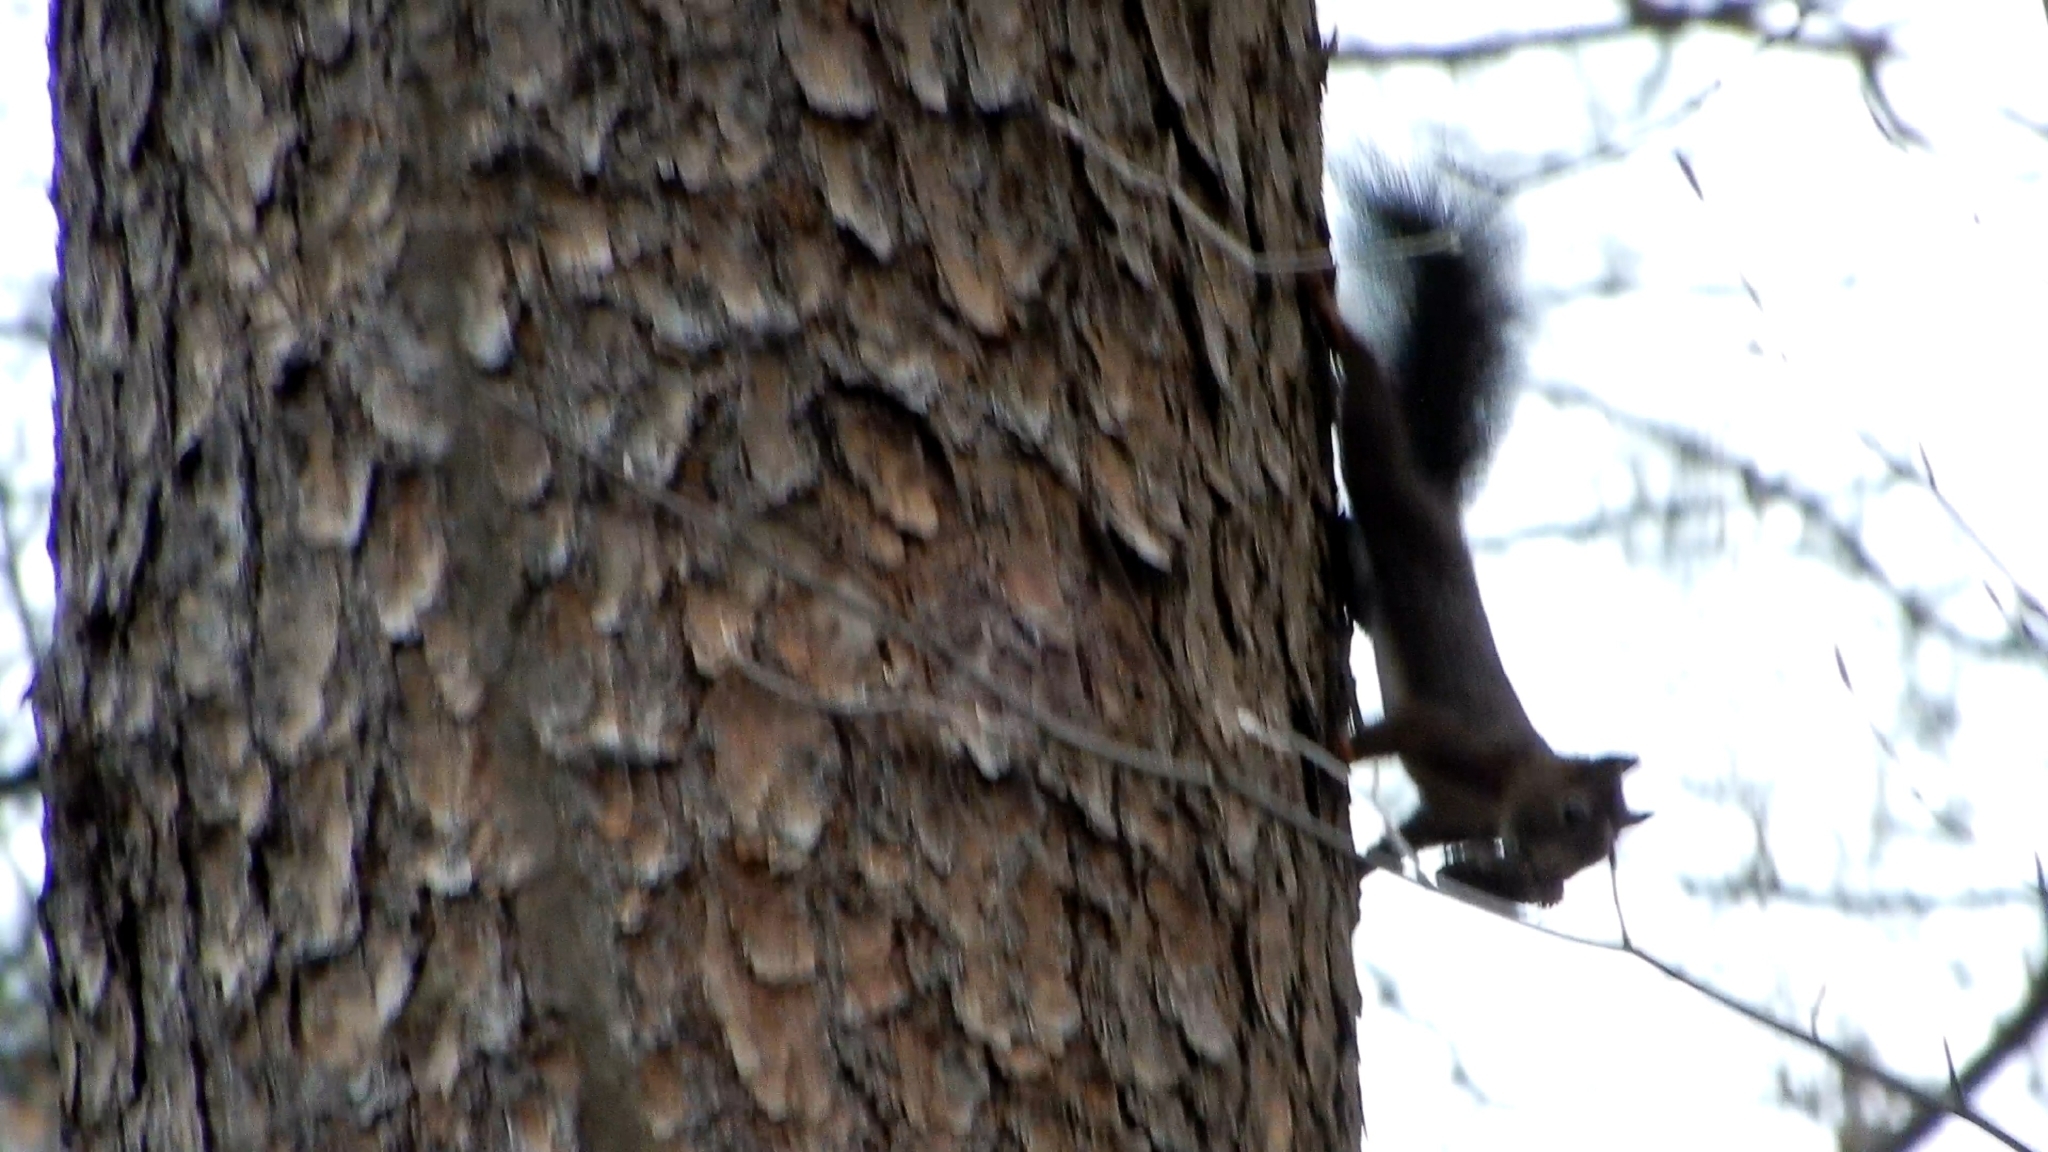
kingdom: Animalia
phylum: Chordata
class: Mammalia
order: Rodentia
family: Sciuridae
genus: Sciurus
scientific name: Sciurus vulgaris
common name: Eurasian red squirrel
